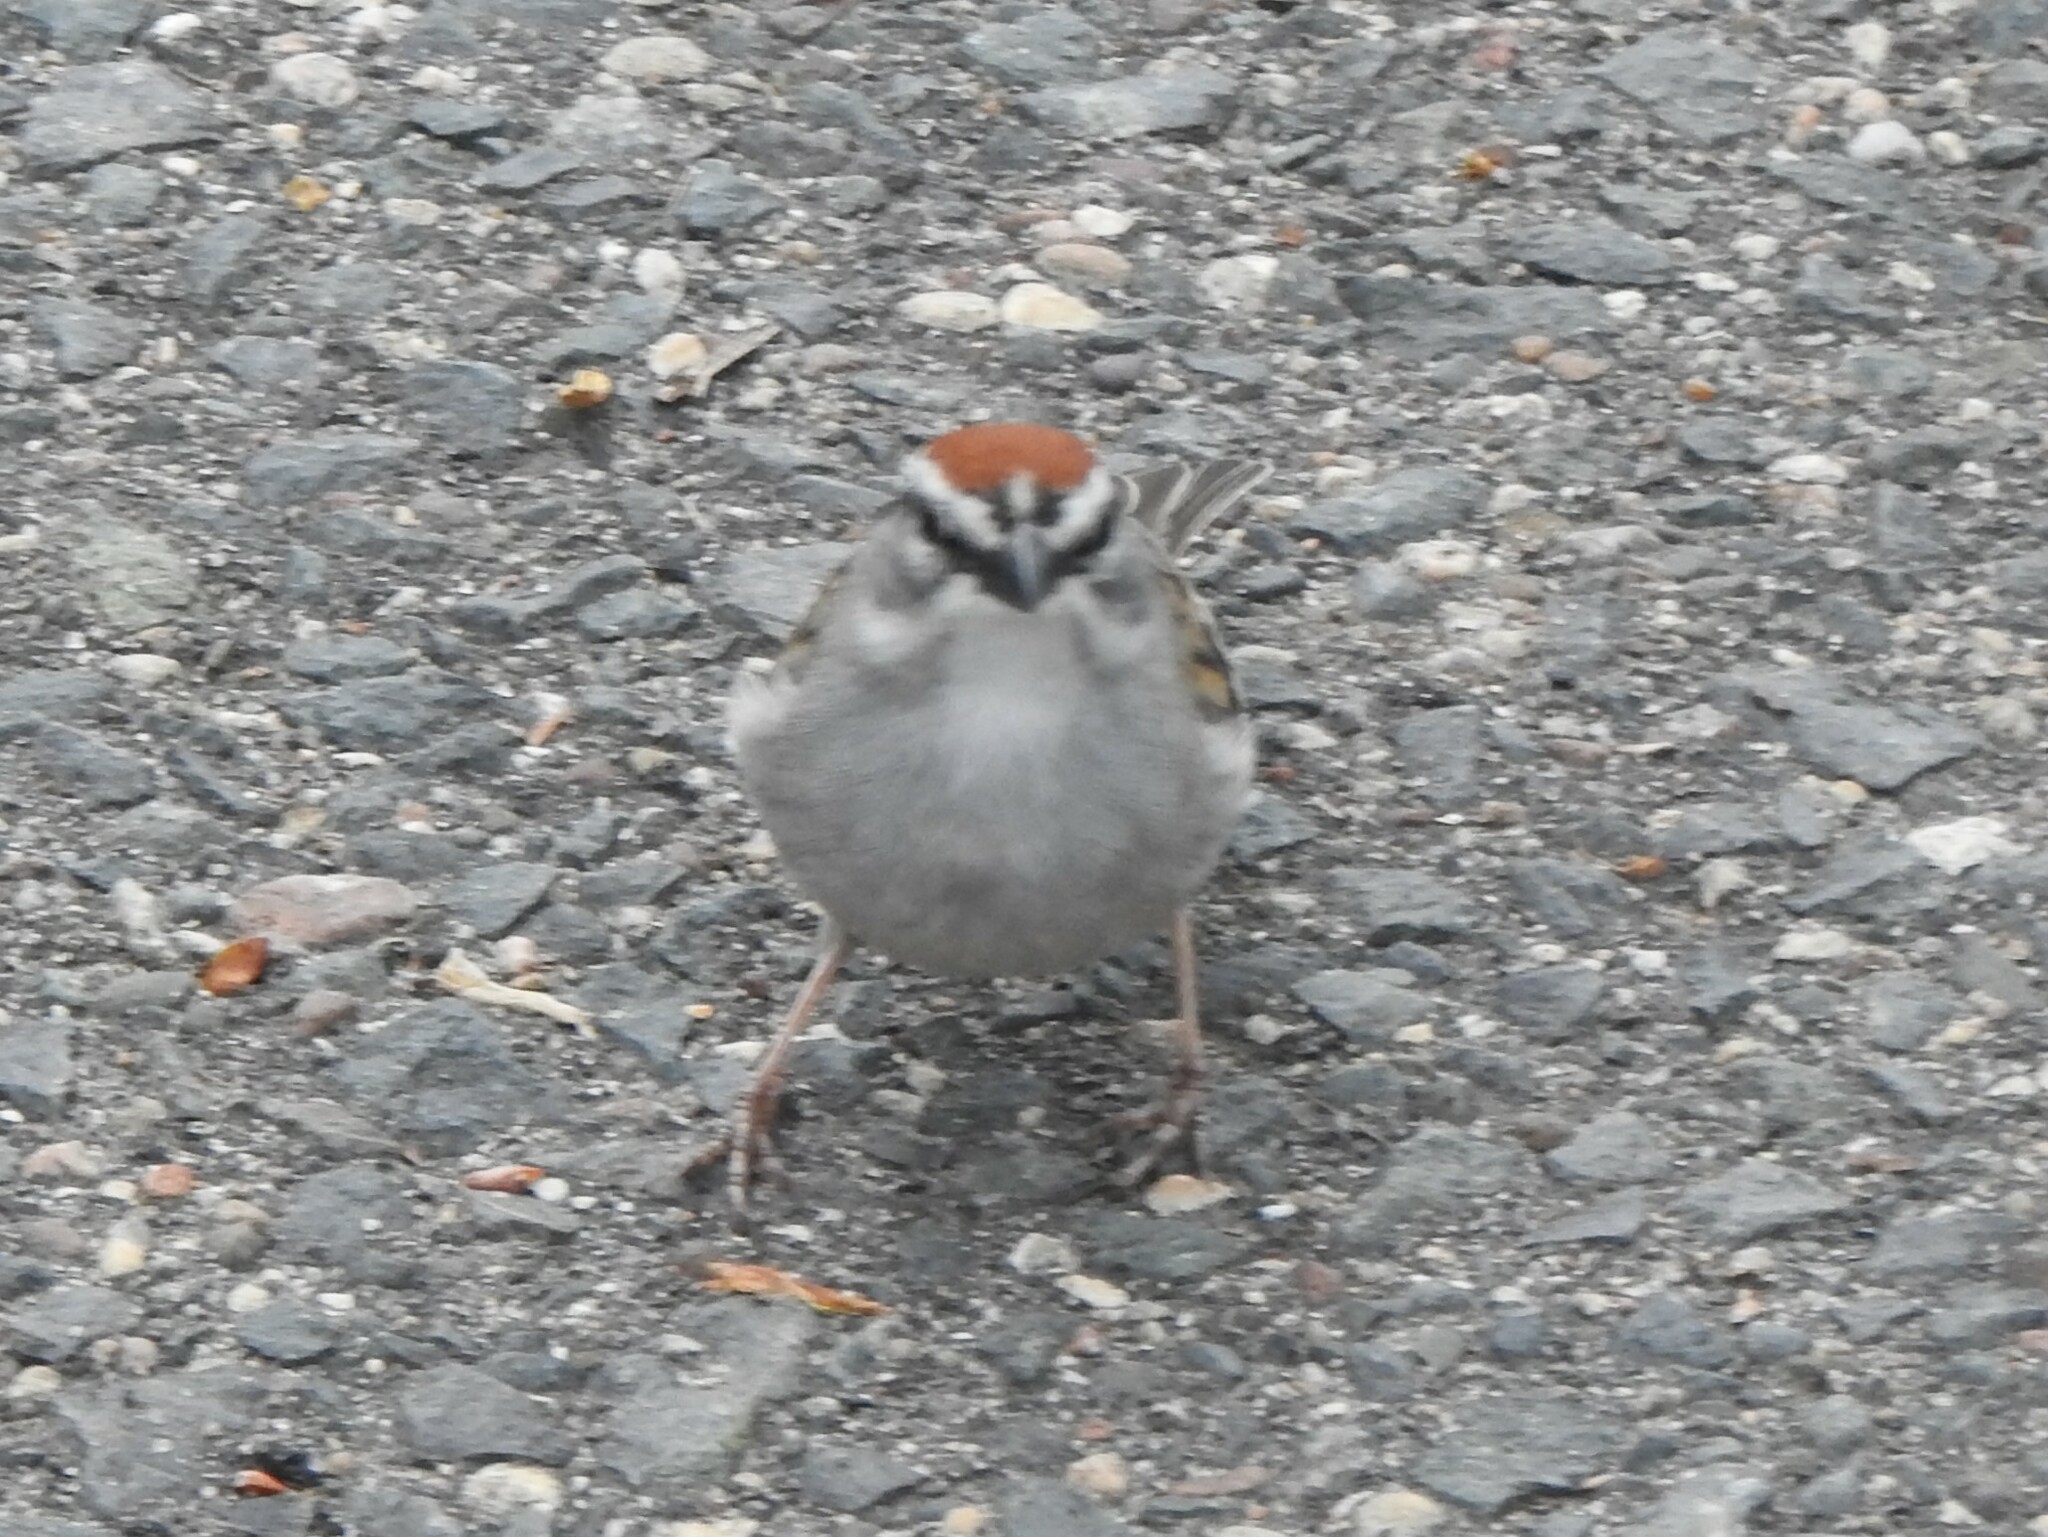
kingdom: Animalia
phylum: Chordata
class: Aves
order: Passeriformes
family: Passerellidae
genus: Spizella
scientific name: Spizella passerina
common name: Chipping sparrow
